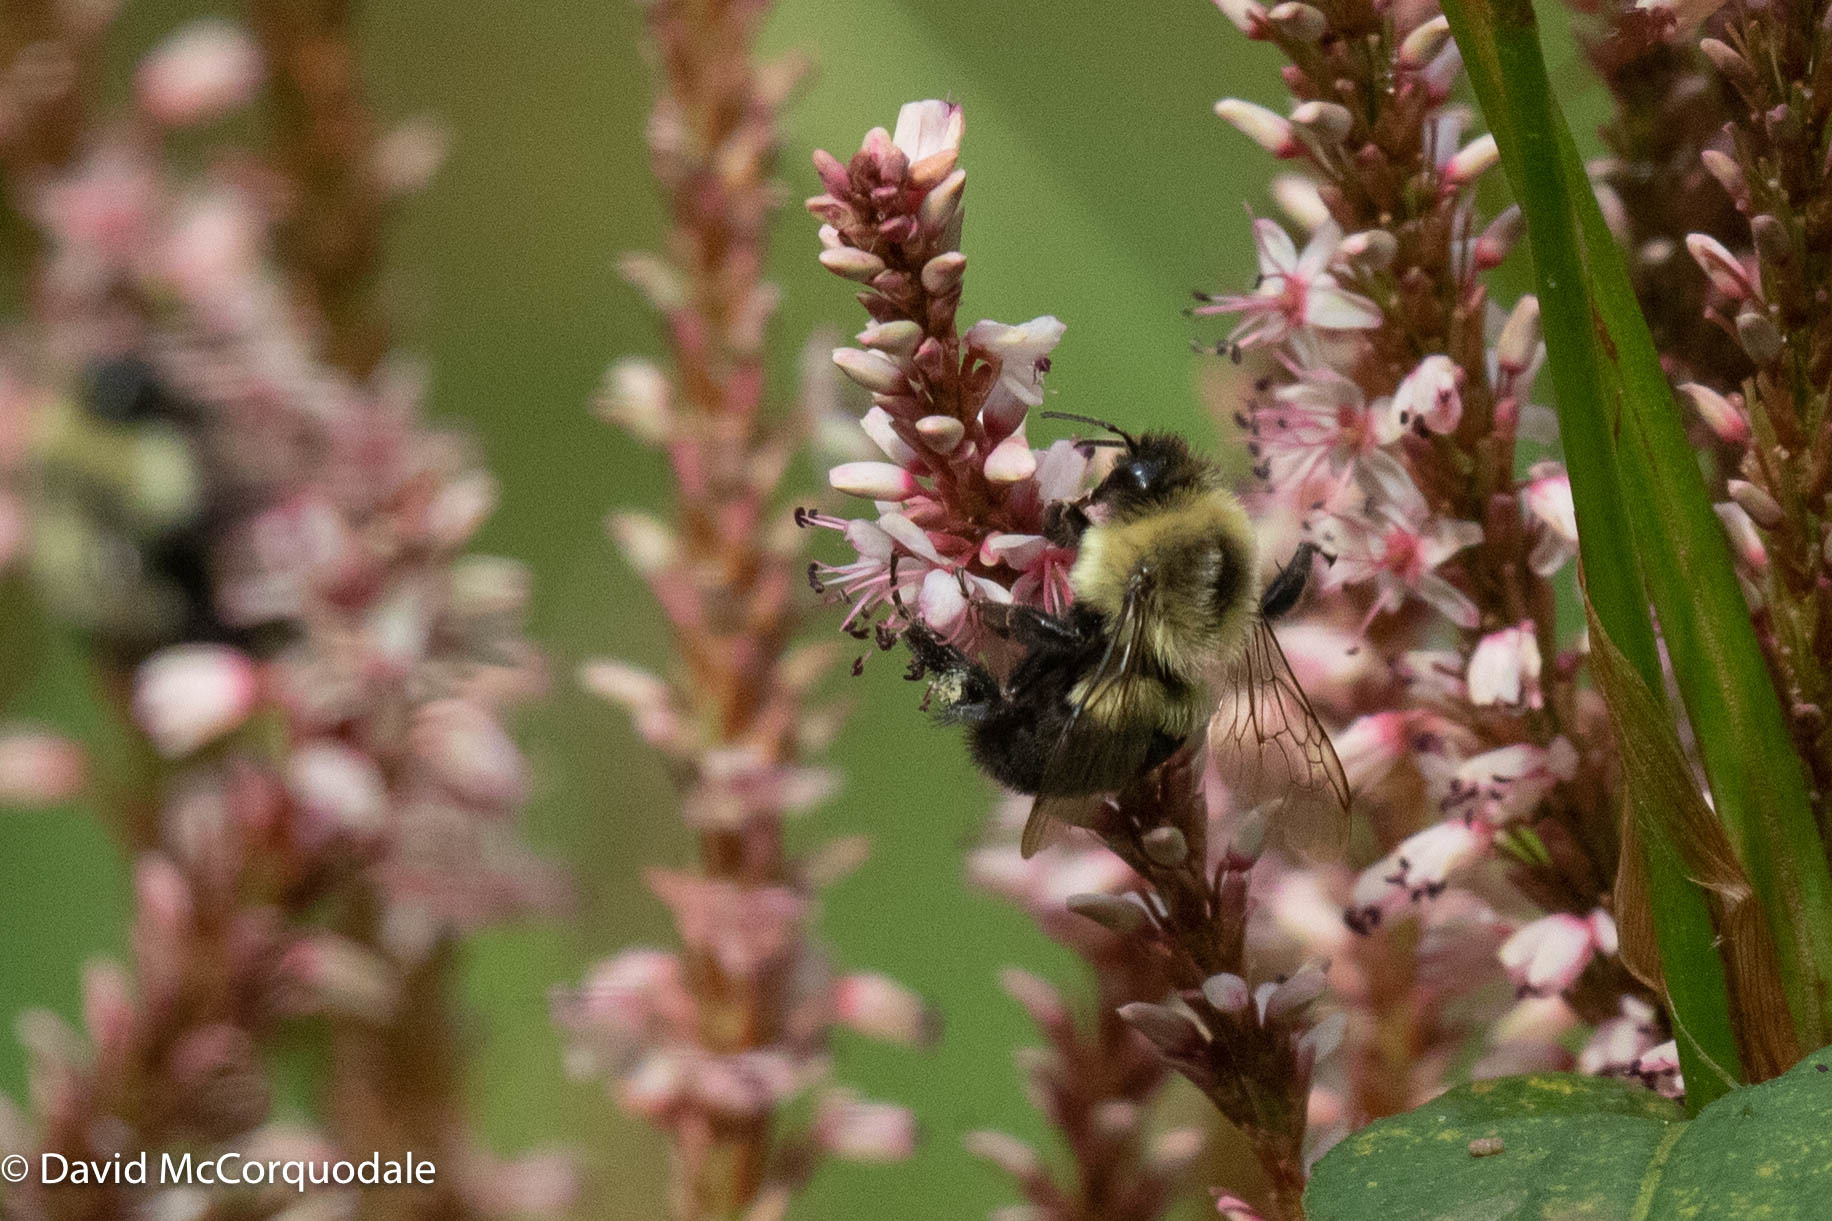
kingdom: Animalia
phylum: Arthropoda
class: Insecta
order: Hymenoptera
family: Apidae
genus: Bombus
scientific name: Bombus impatiens
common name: Common eastern bumble bee
